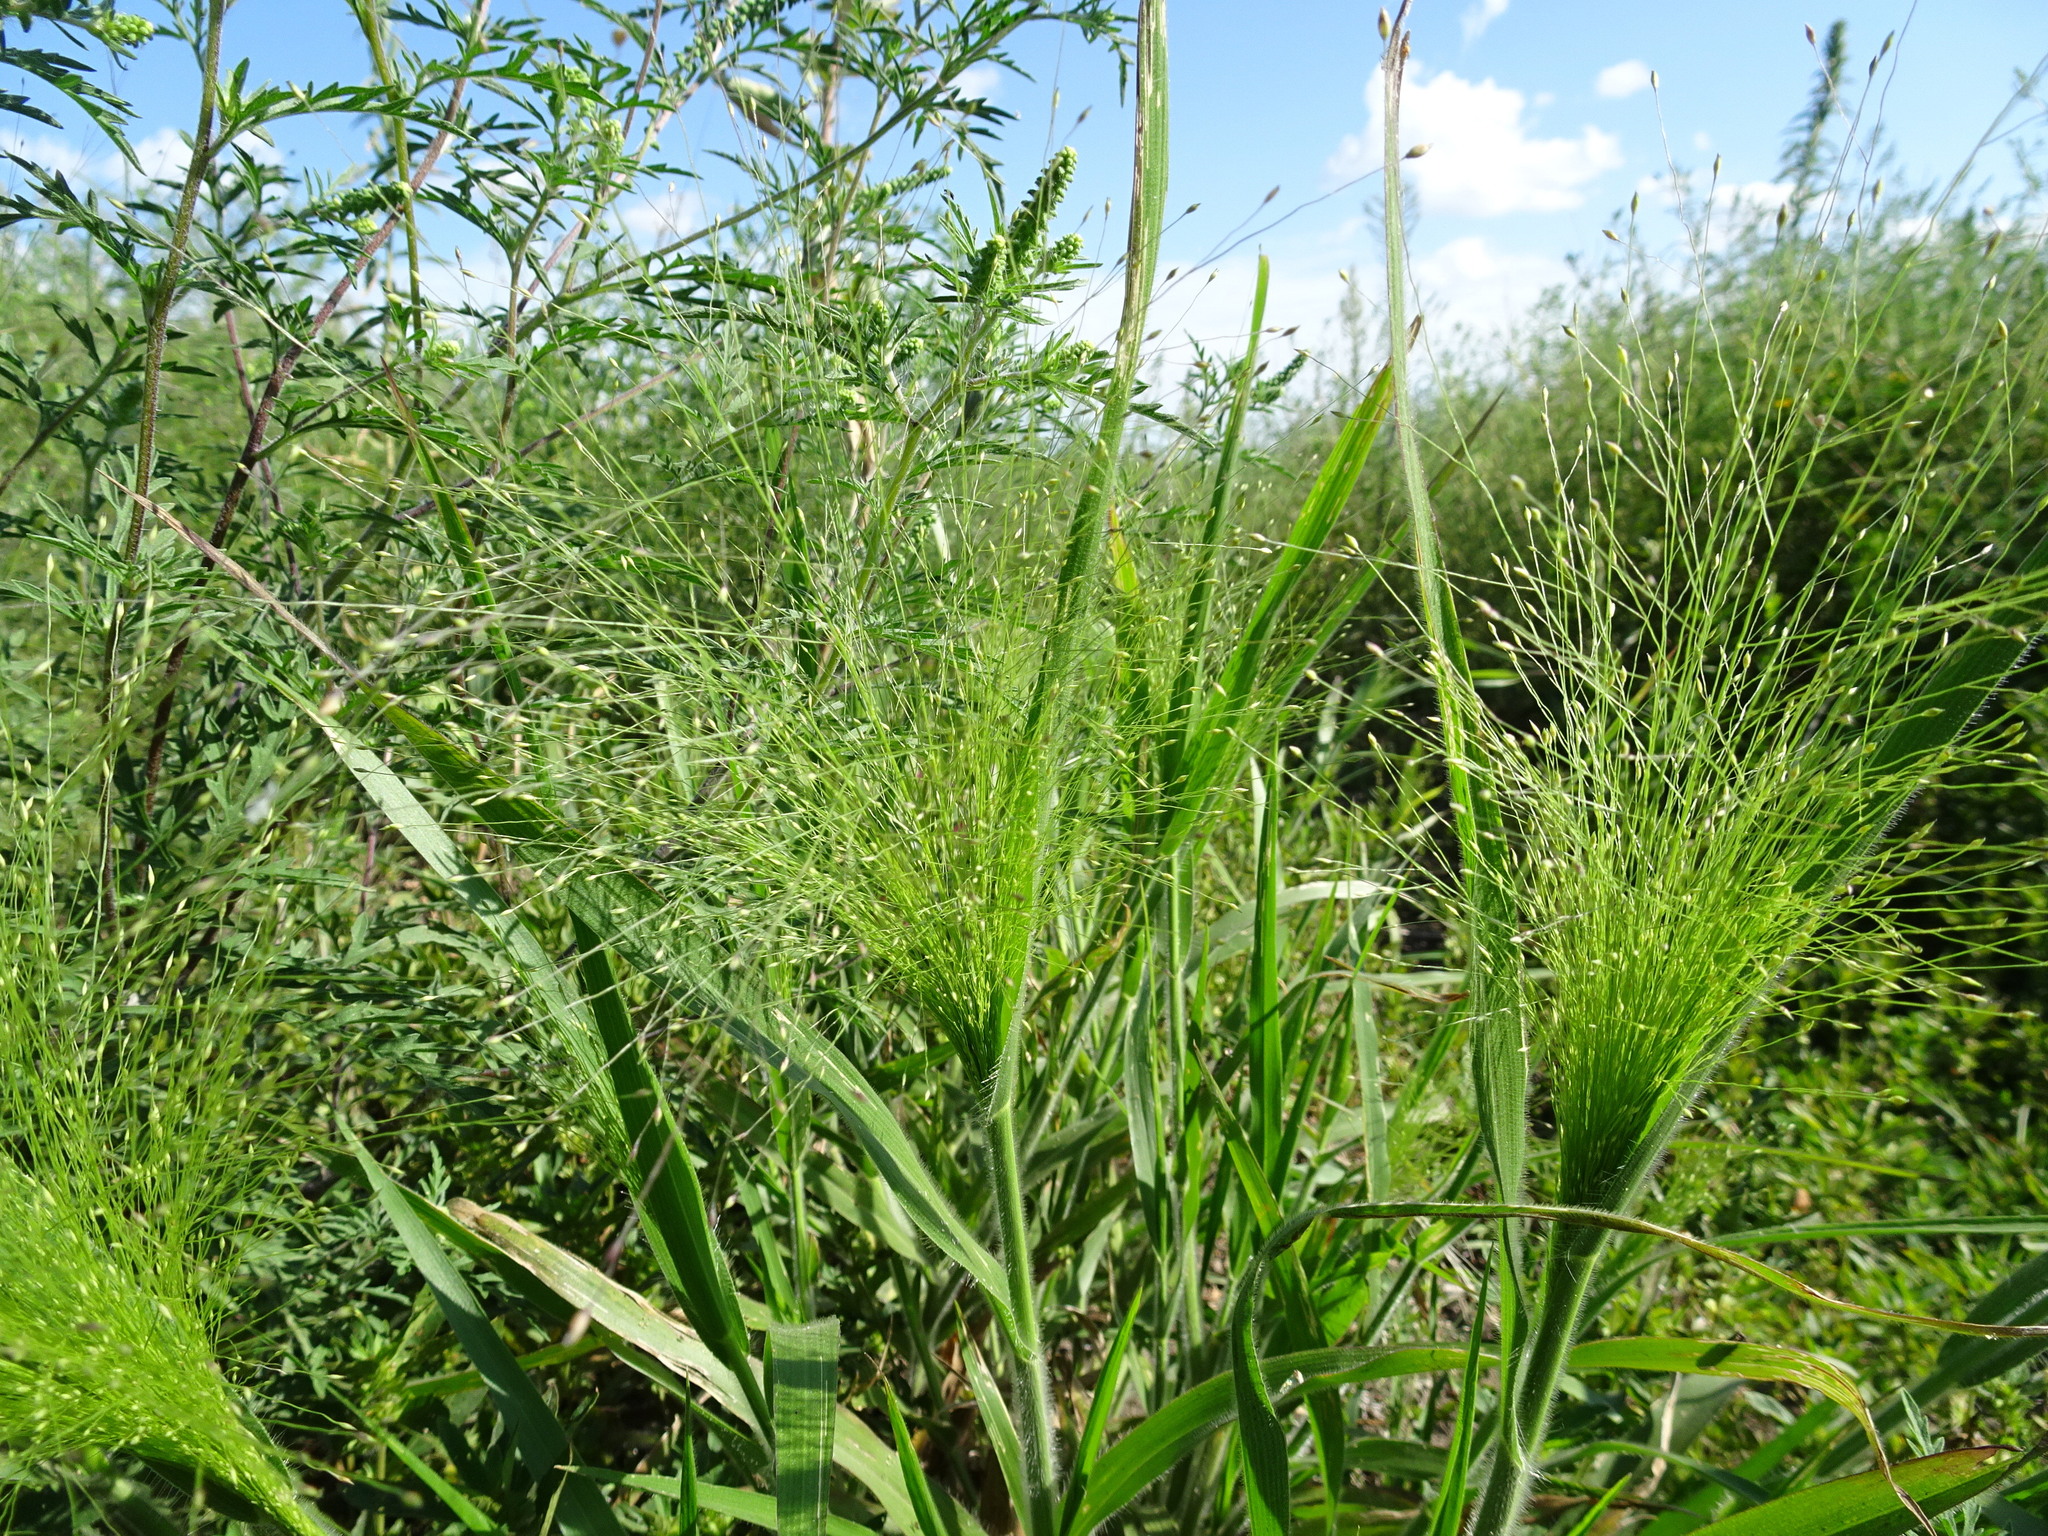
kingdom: Plantae
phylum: Tracheophyta
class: Liliopsida
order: Poales
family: Poaceae
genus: Panicum
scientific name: Panicum capillare
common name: Witch-grass
